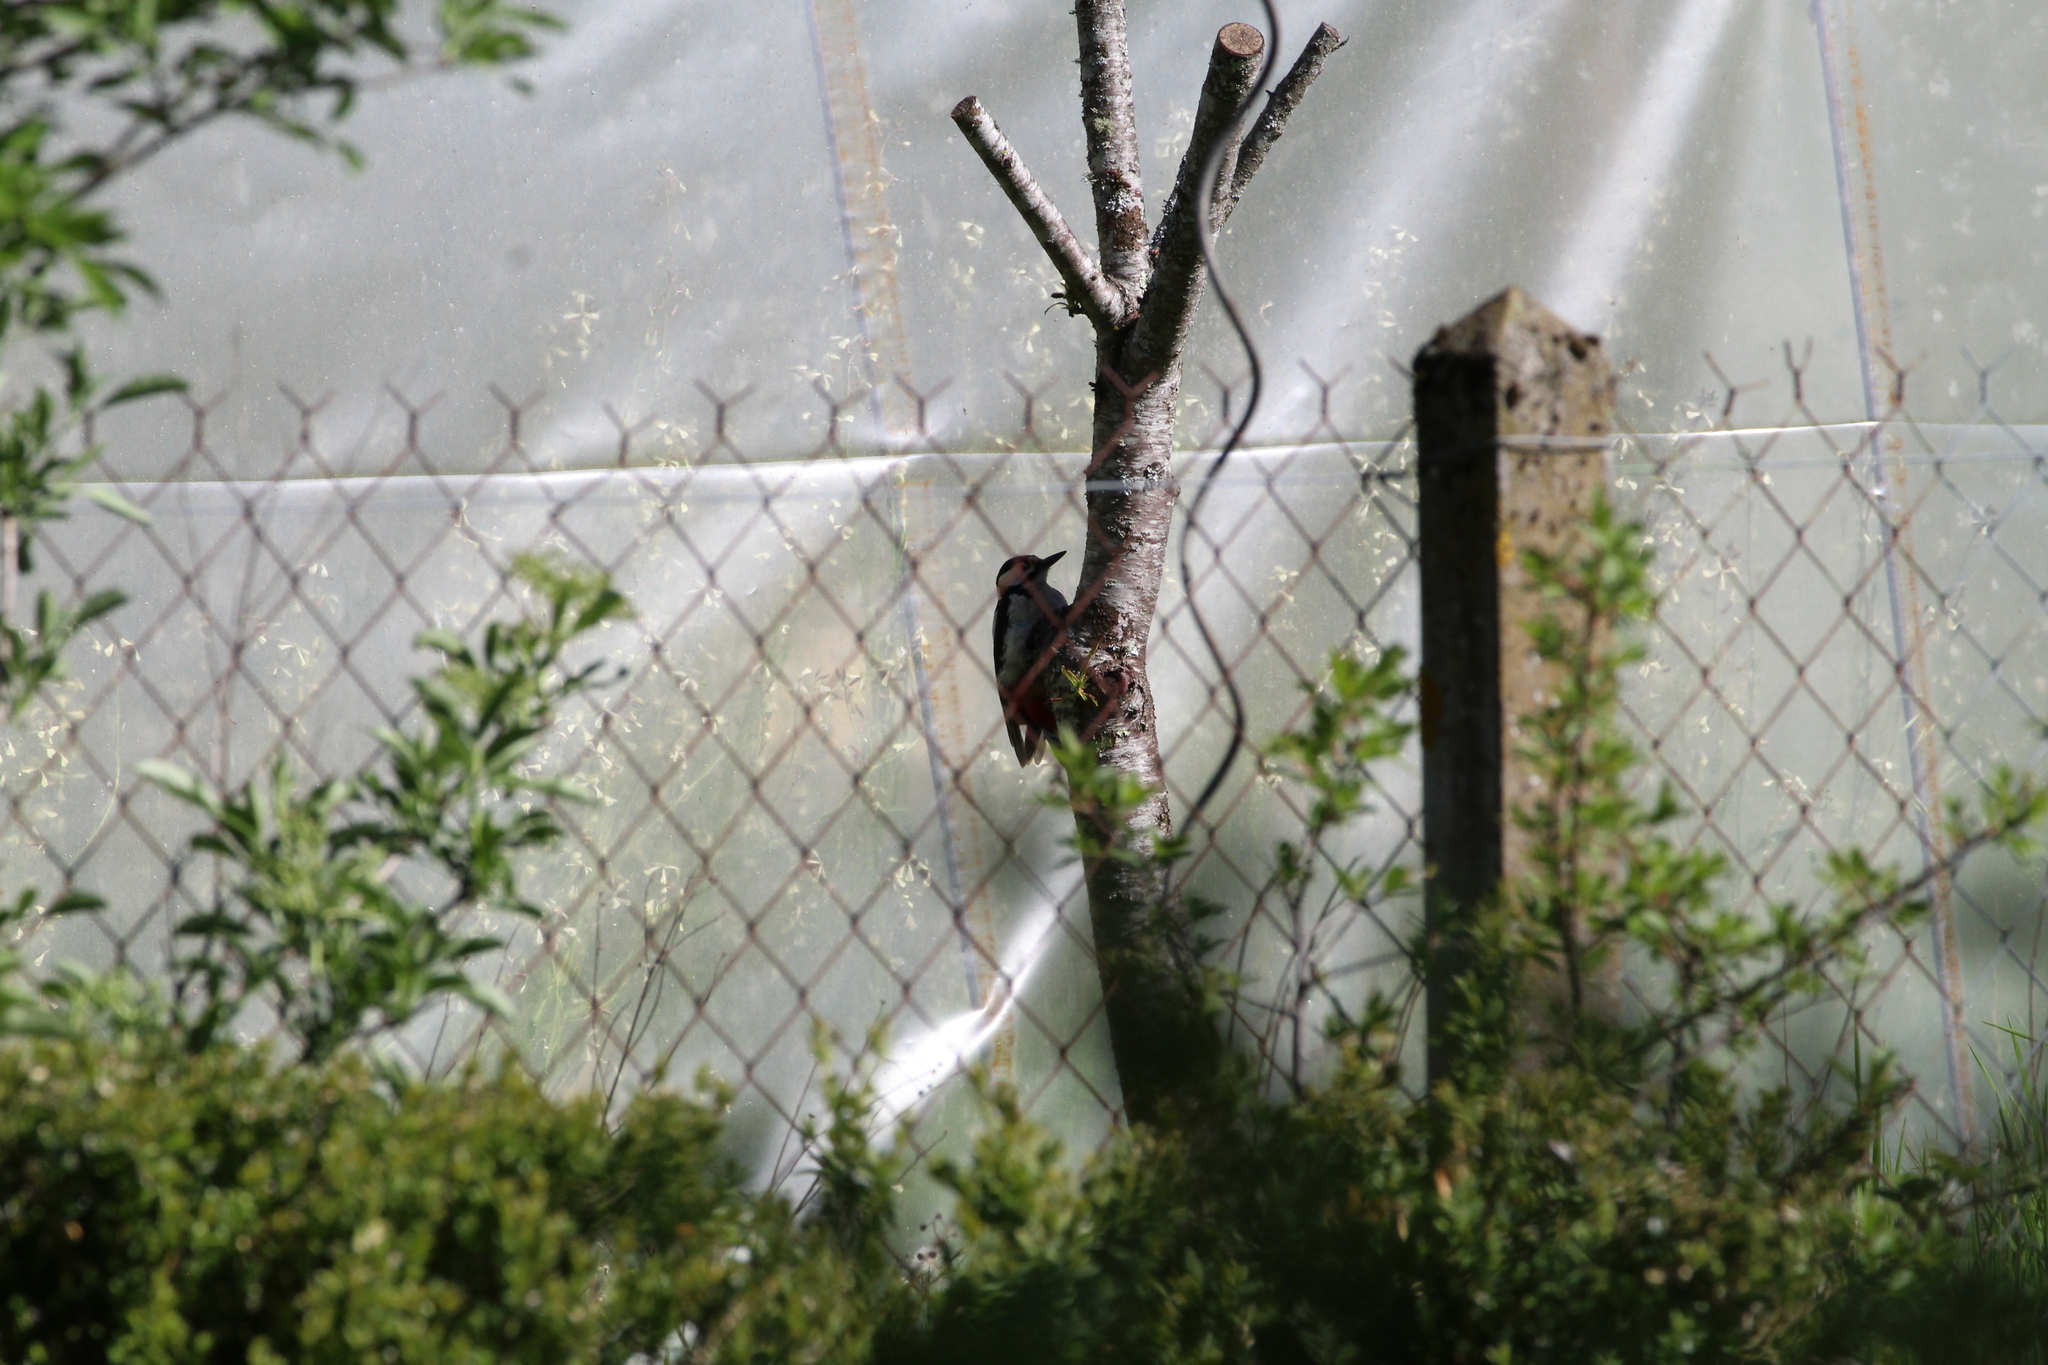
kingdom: Animalia
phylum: Chordata
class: Aves
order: Piciformes
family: Picidae
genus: Dendrocopos
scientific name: Dendrocopos major
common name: Great spotted woodpecker
